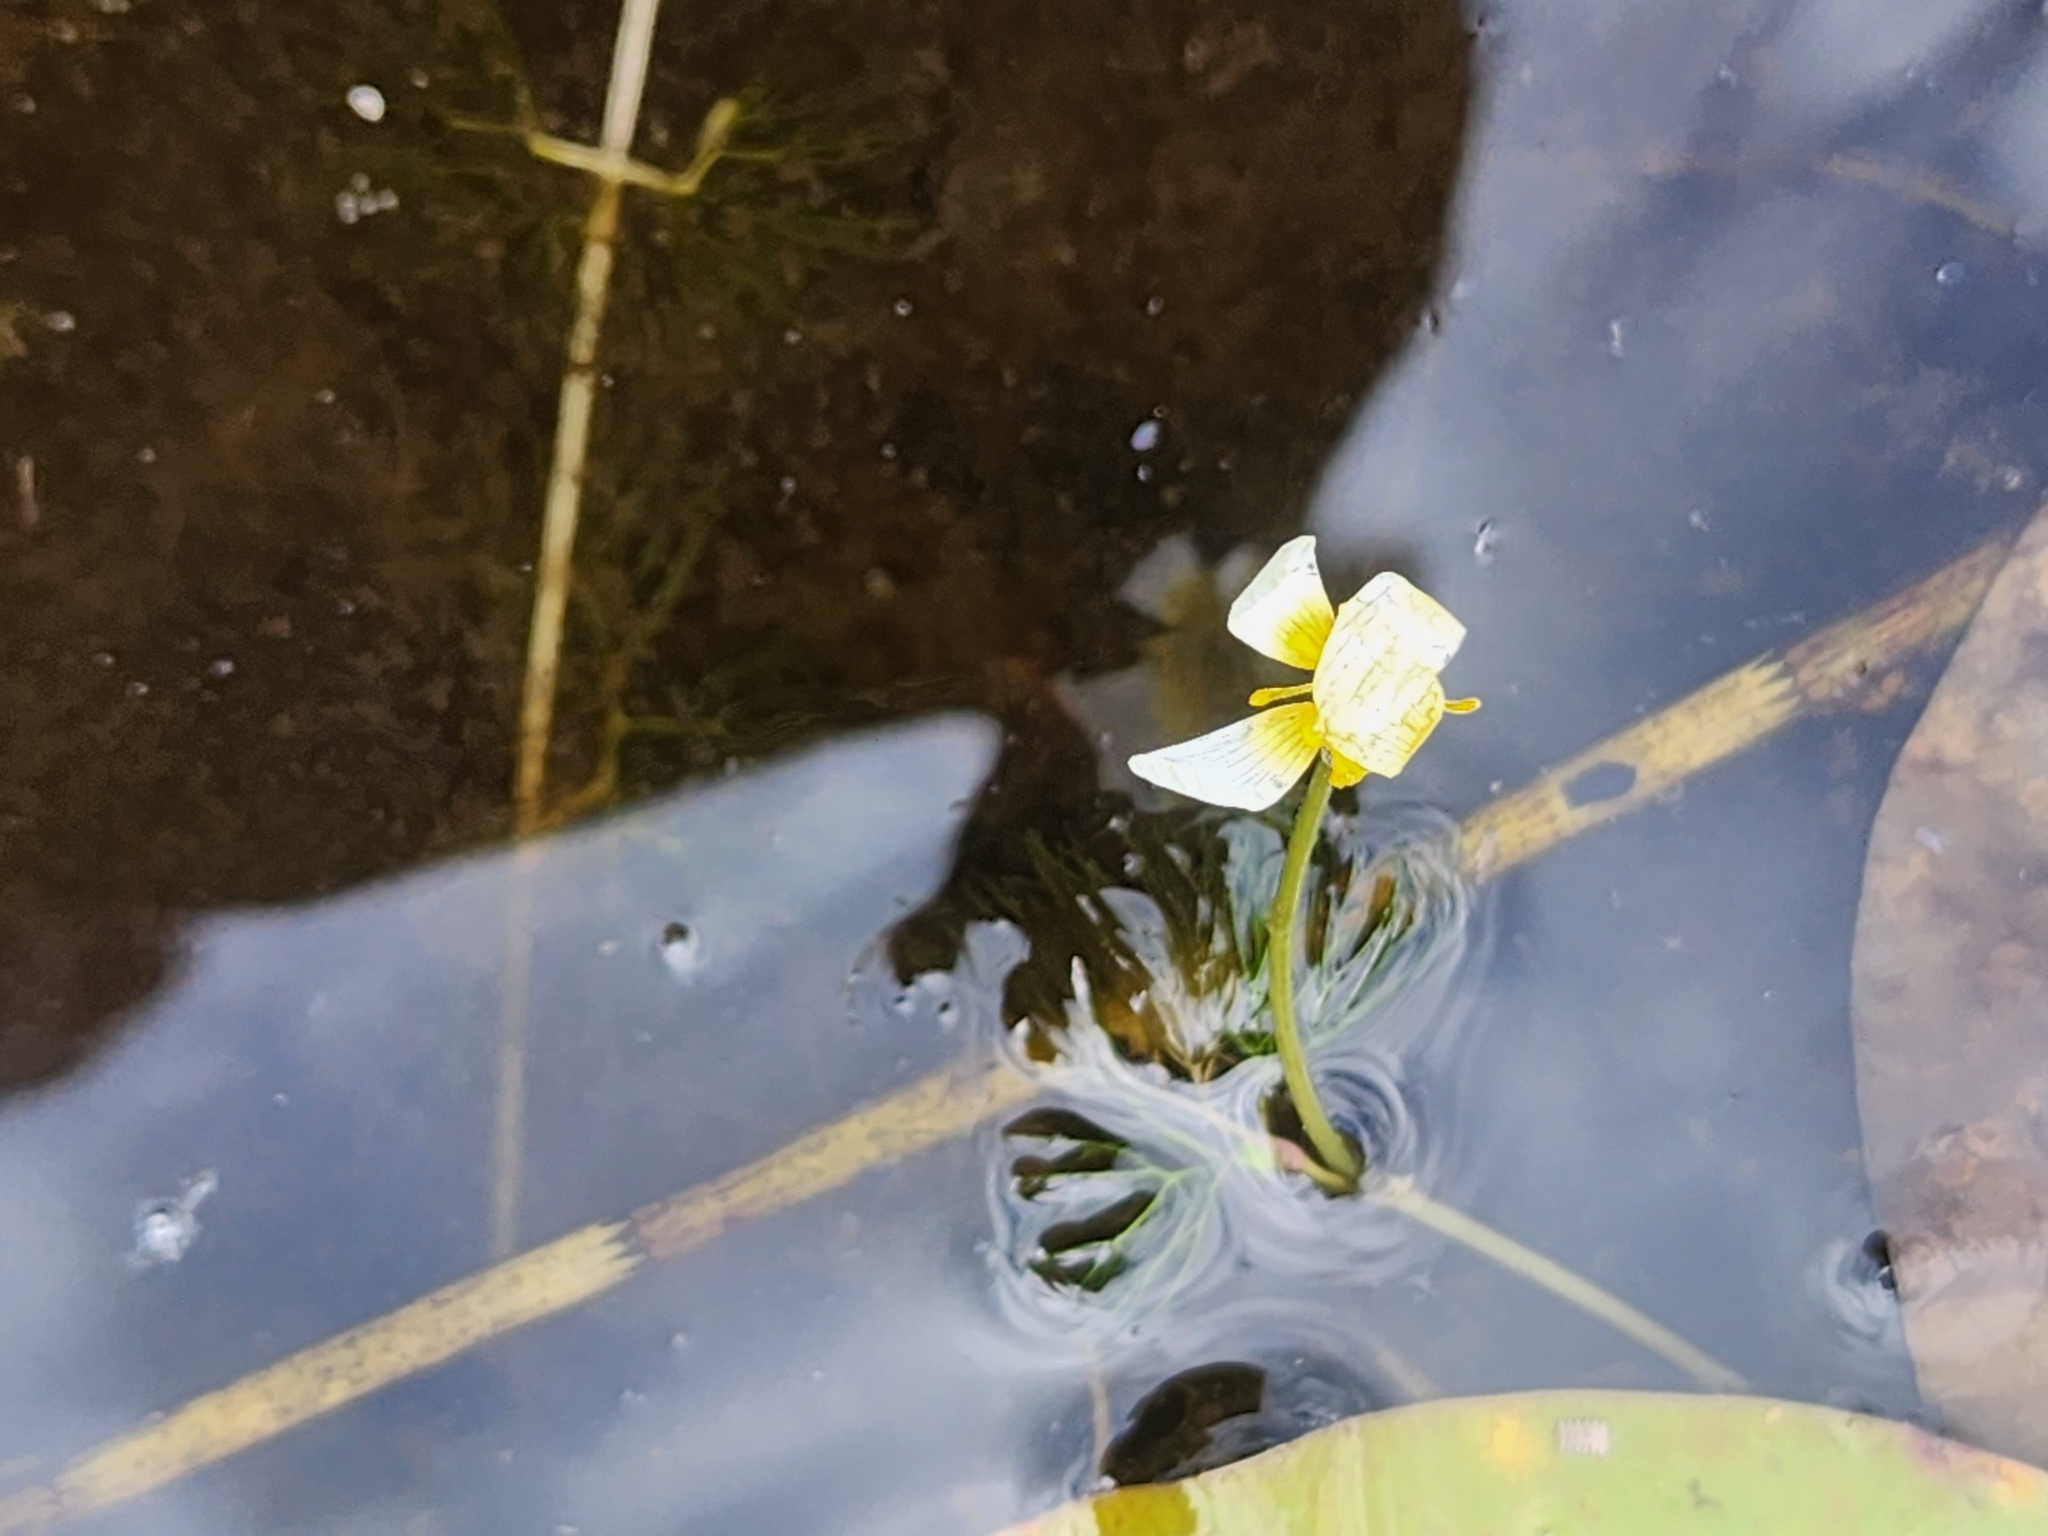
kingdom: Plantae
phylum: Tracheophyta
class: Magnoliopsida
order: Ranunculales
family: Ranunculaceae
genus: Ranunculus
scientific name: Ranunculus aquatilis
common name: Common water-crowfoot
